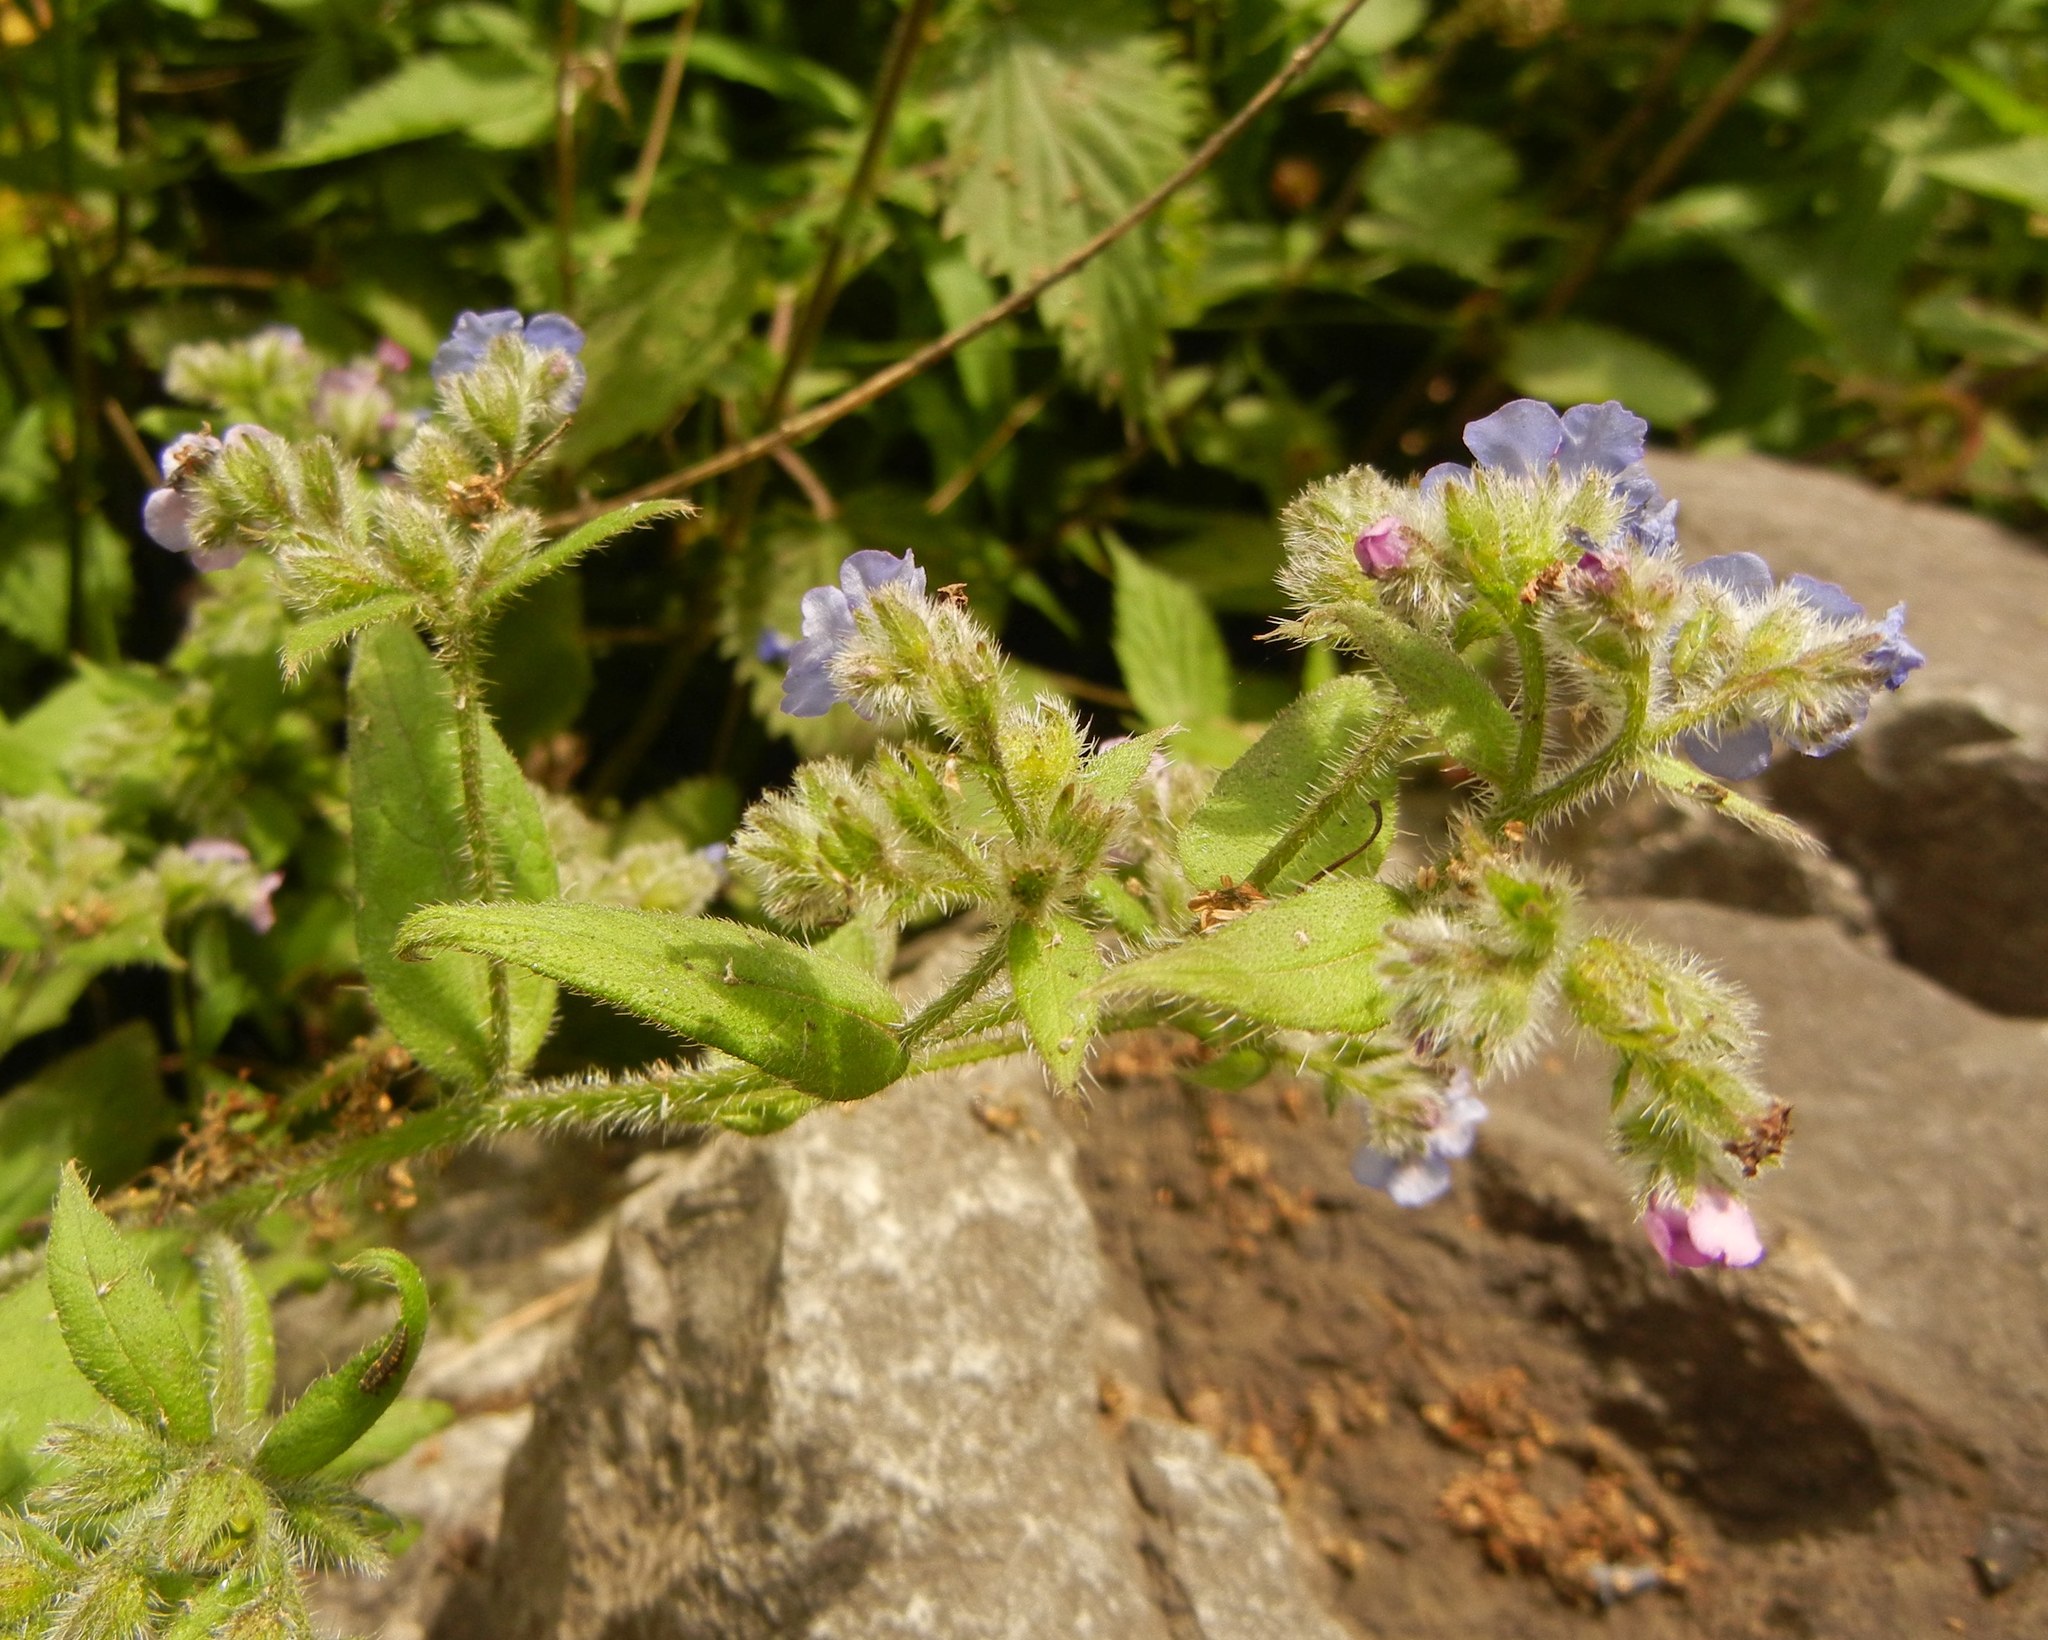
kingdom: Plantae
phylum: Tracheophyta
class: Magnoliopsida
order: Boraginales
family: Boraginaceae
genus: Pentaglottis
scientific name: Pentaglottis sempervirens
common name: Green alkanet
